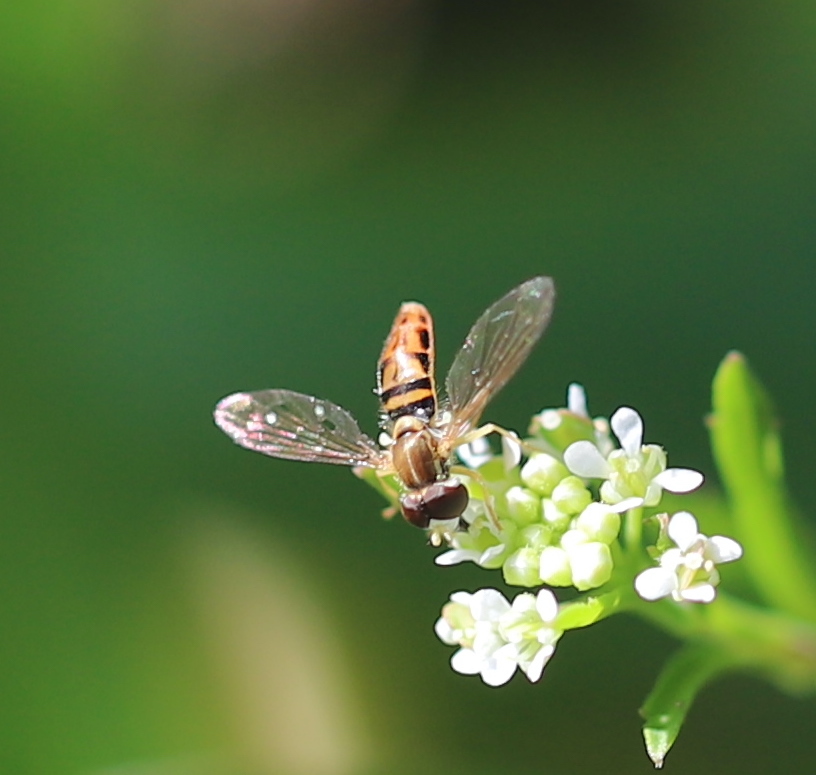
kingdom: Animalia
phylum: Arthropoda
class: Insecta
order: Diptera
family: Syrphidae
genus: Toxomerus
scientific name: Toxomerus marginatus
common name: Syrphid fly
